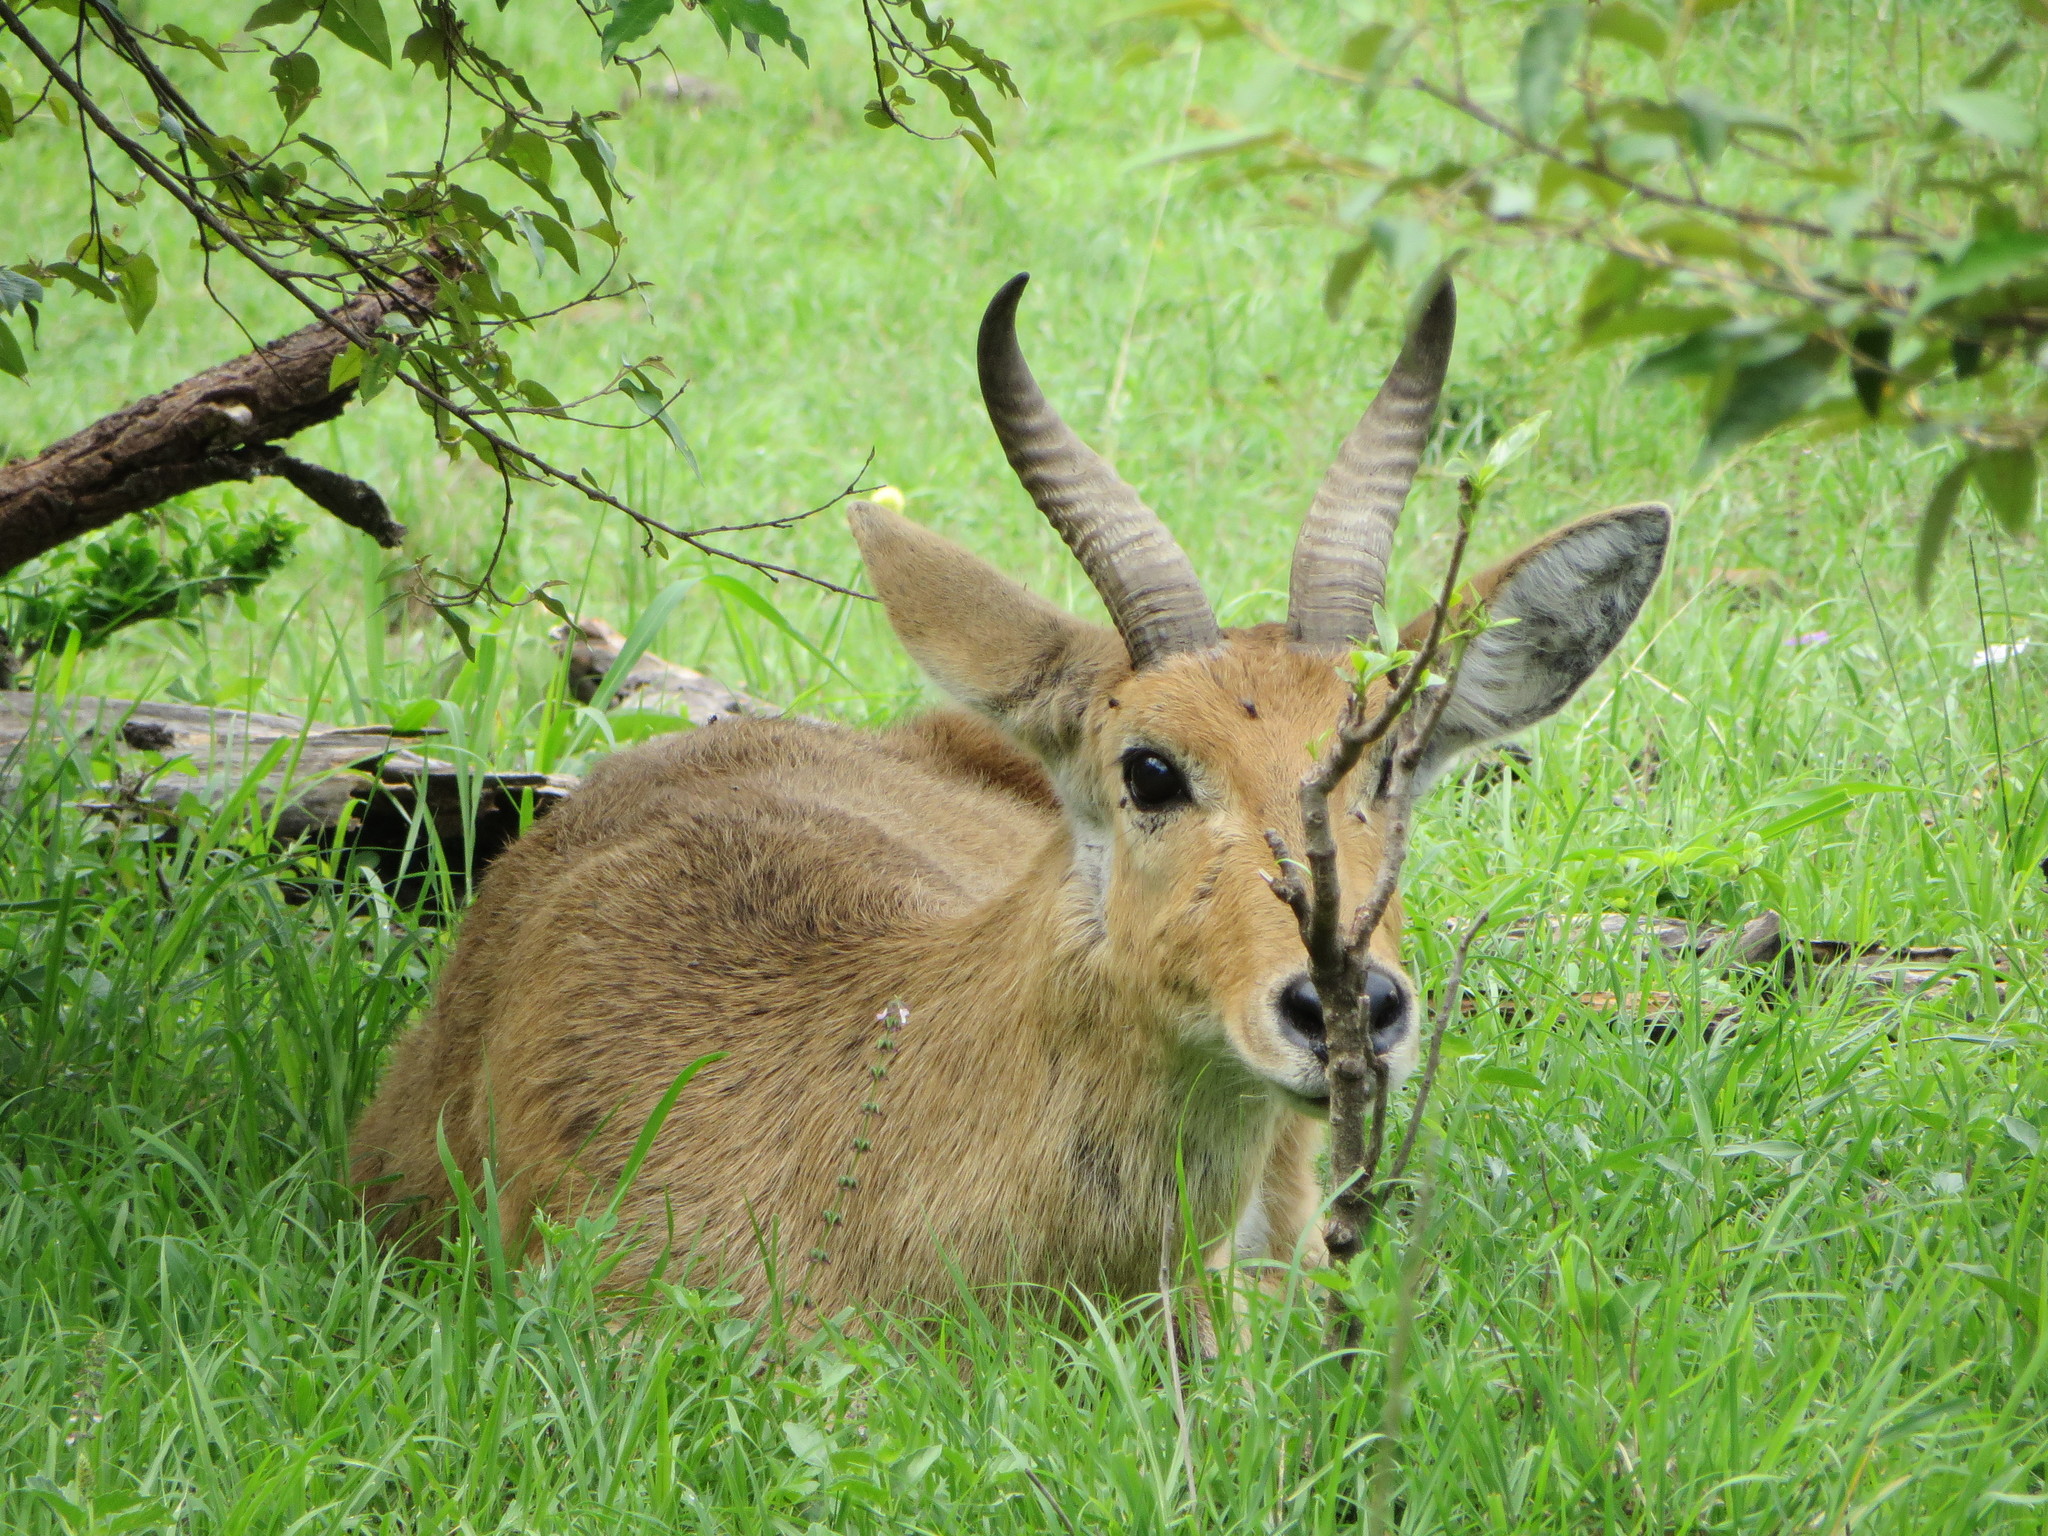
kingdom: Animalia
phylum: Chordata
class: Mammalia
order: Artiodactyla
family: Bovidae
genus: Redunca
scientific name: Redunca redunca
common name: Common reedbuck
